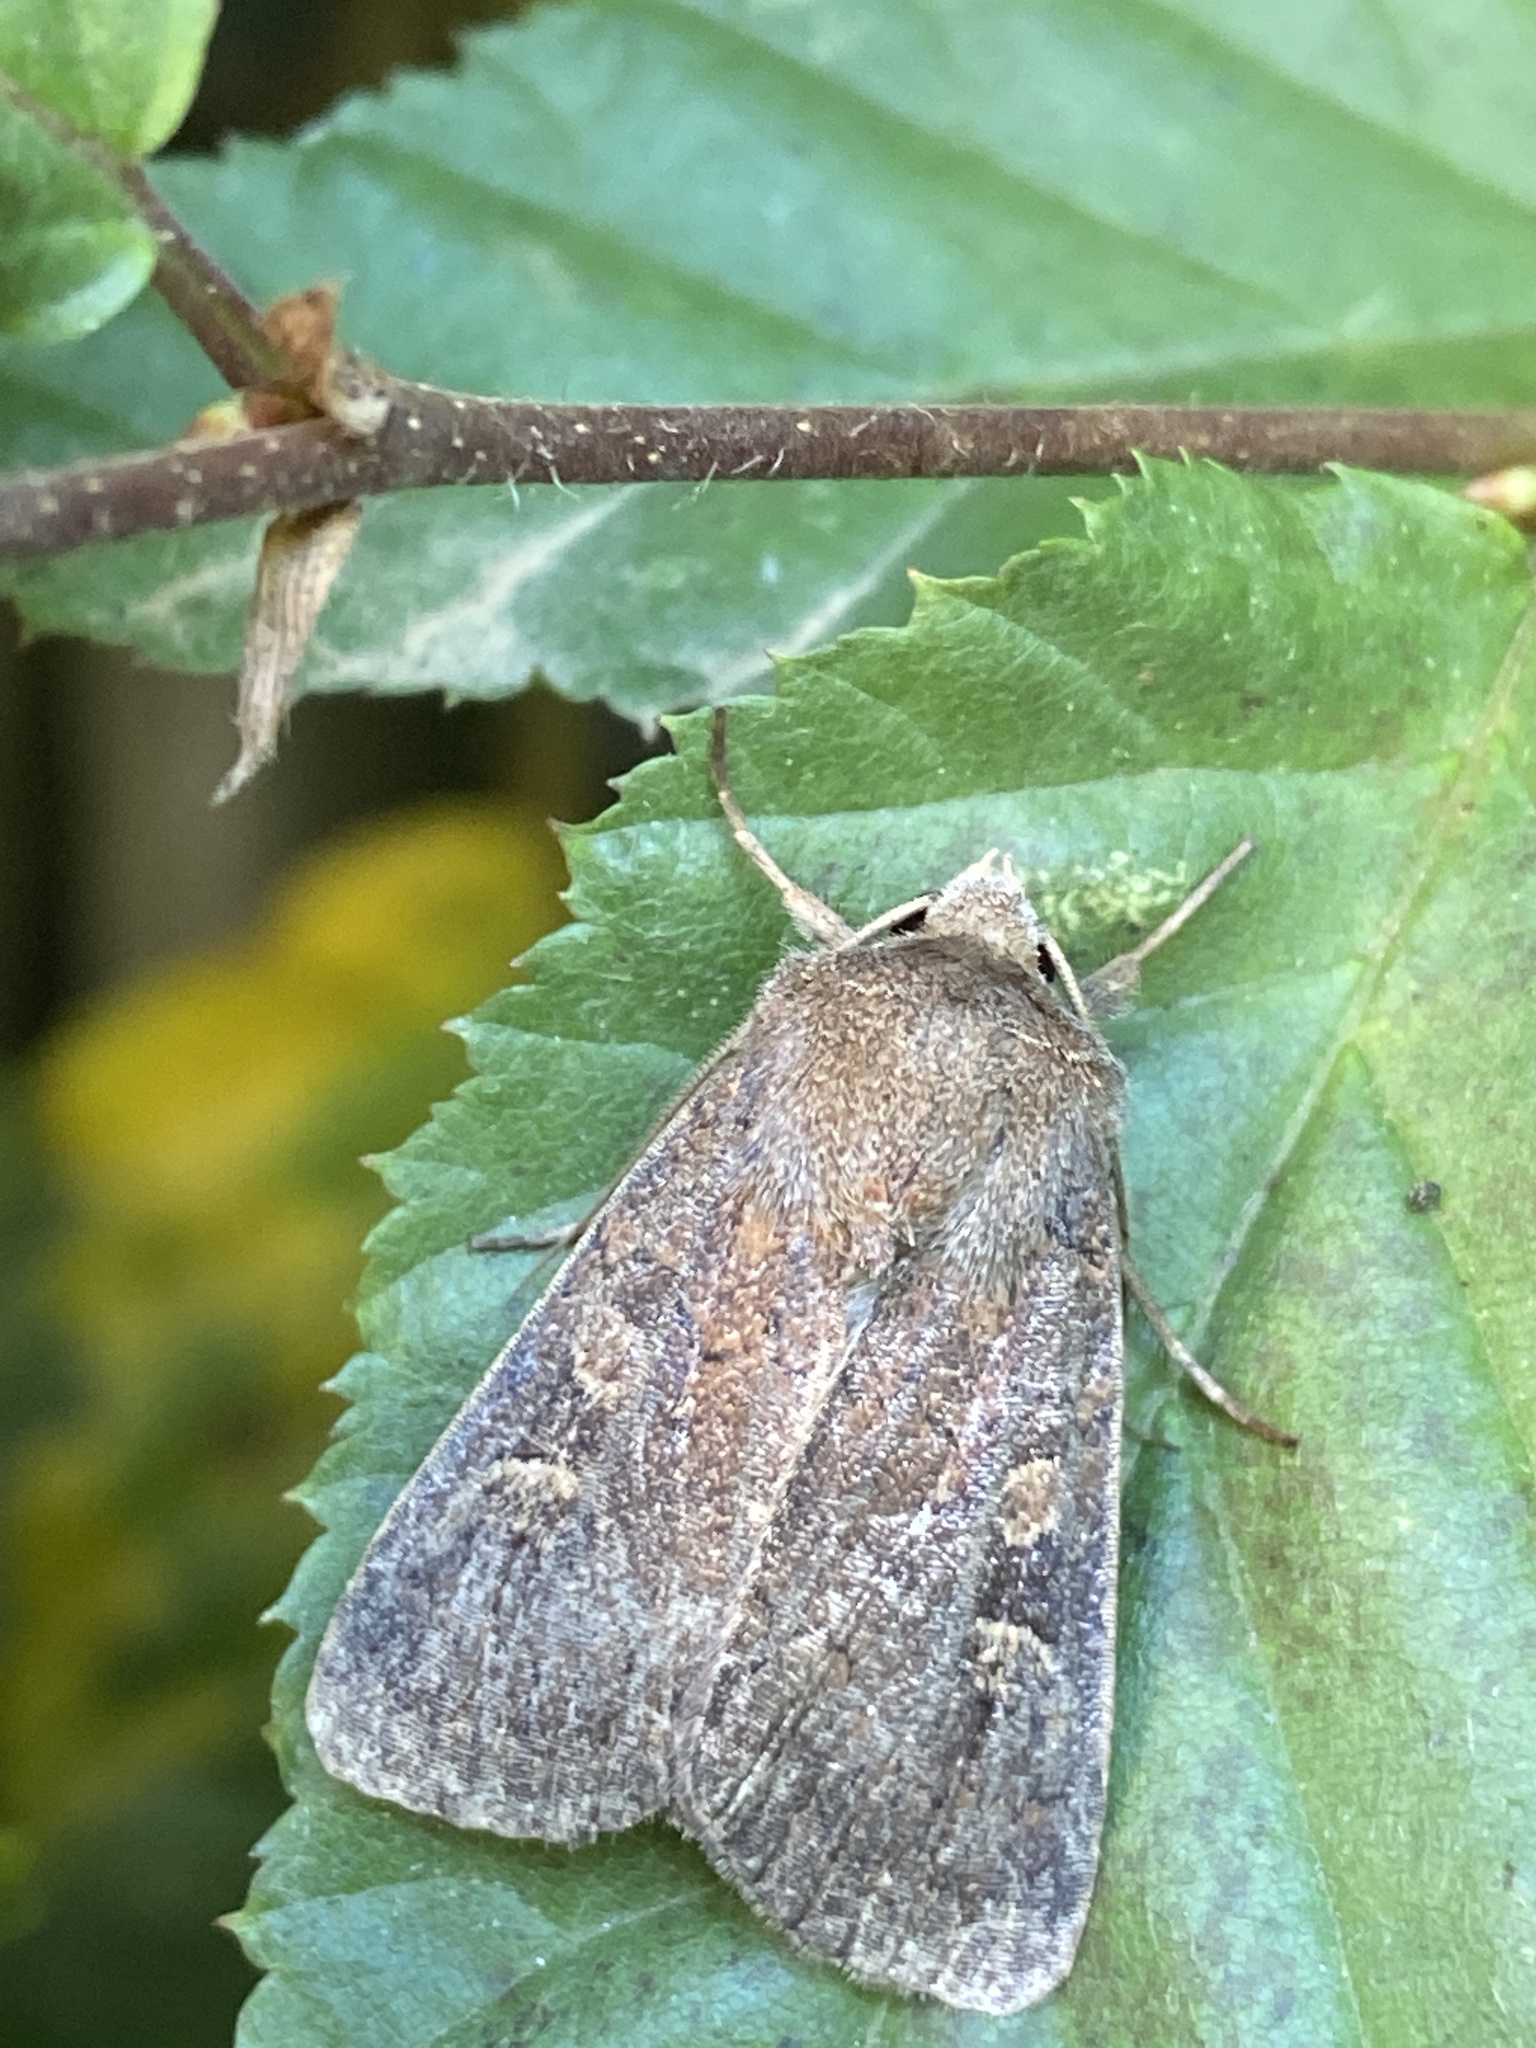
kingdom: Animalia
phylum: Arthropoda
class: Insecta
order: Lepidoptera
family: Noctuidae
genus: Xestia
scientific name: Xestia xanthographa
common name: Square-spot rustic
